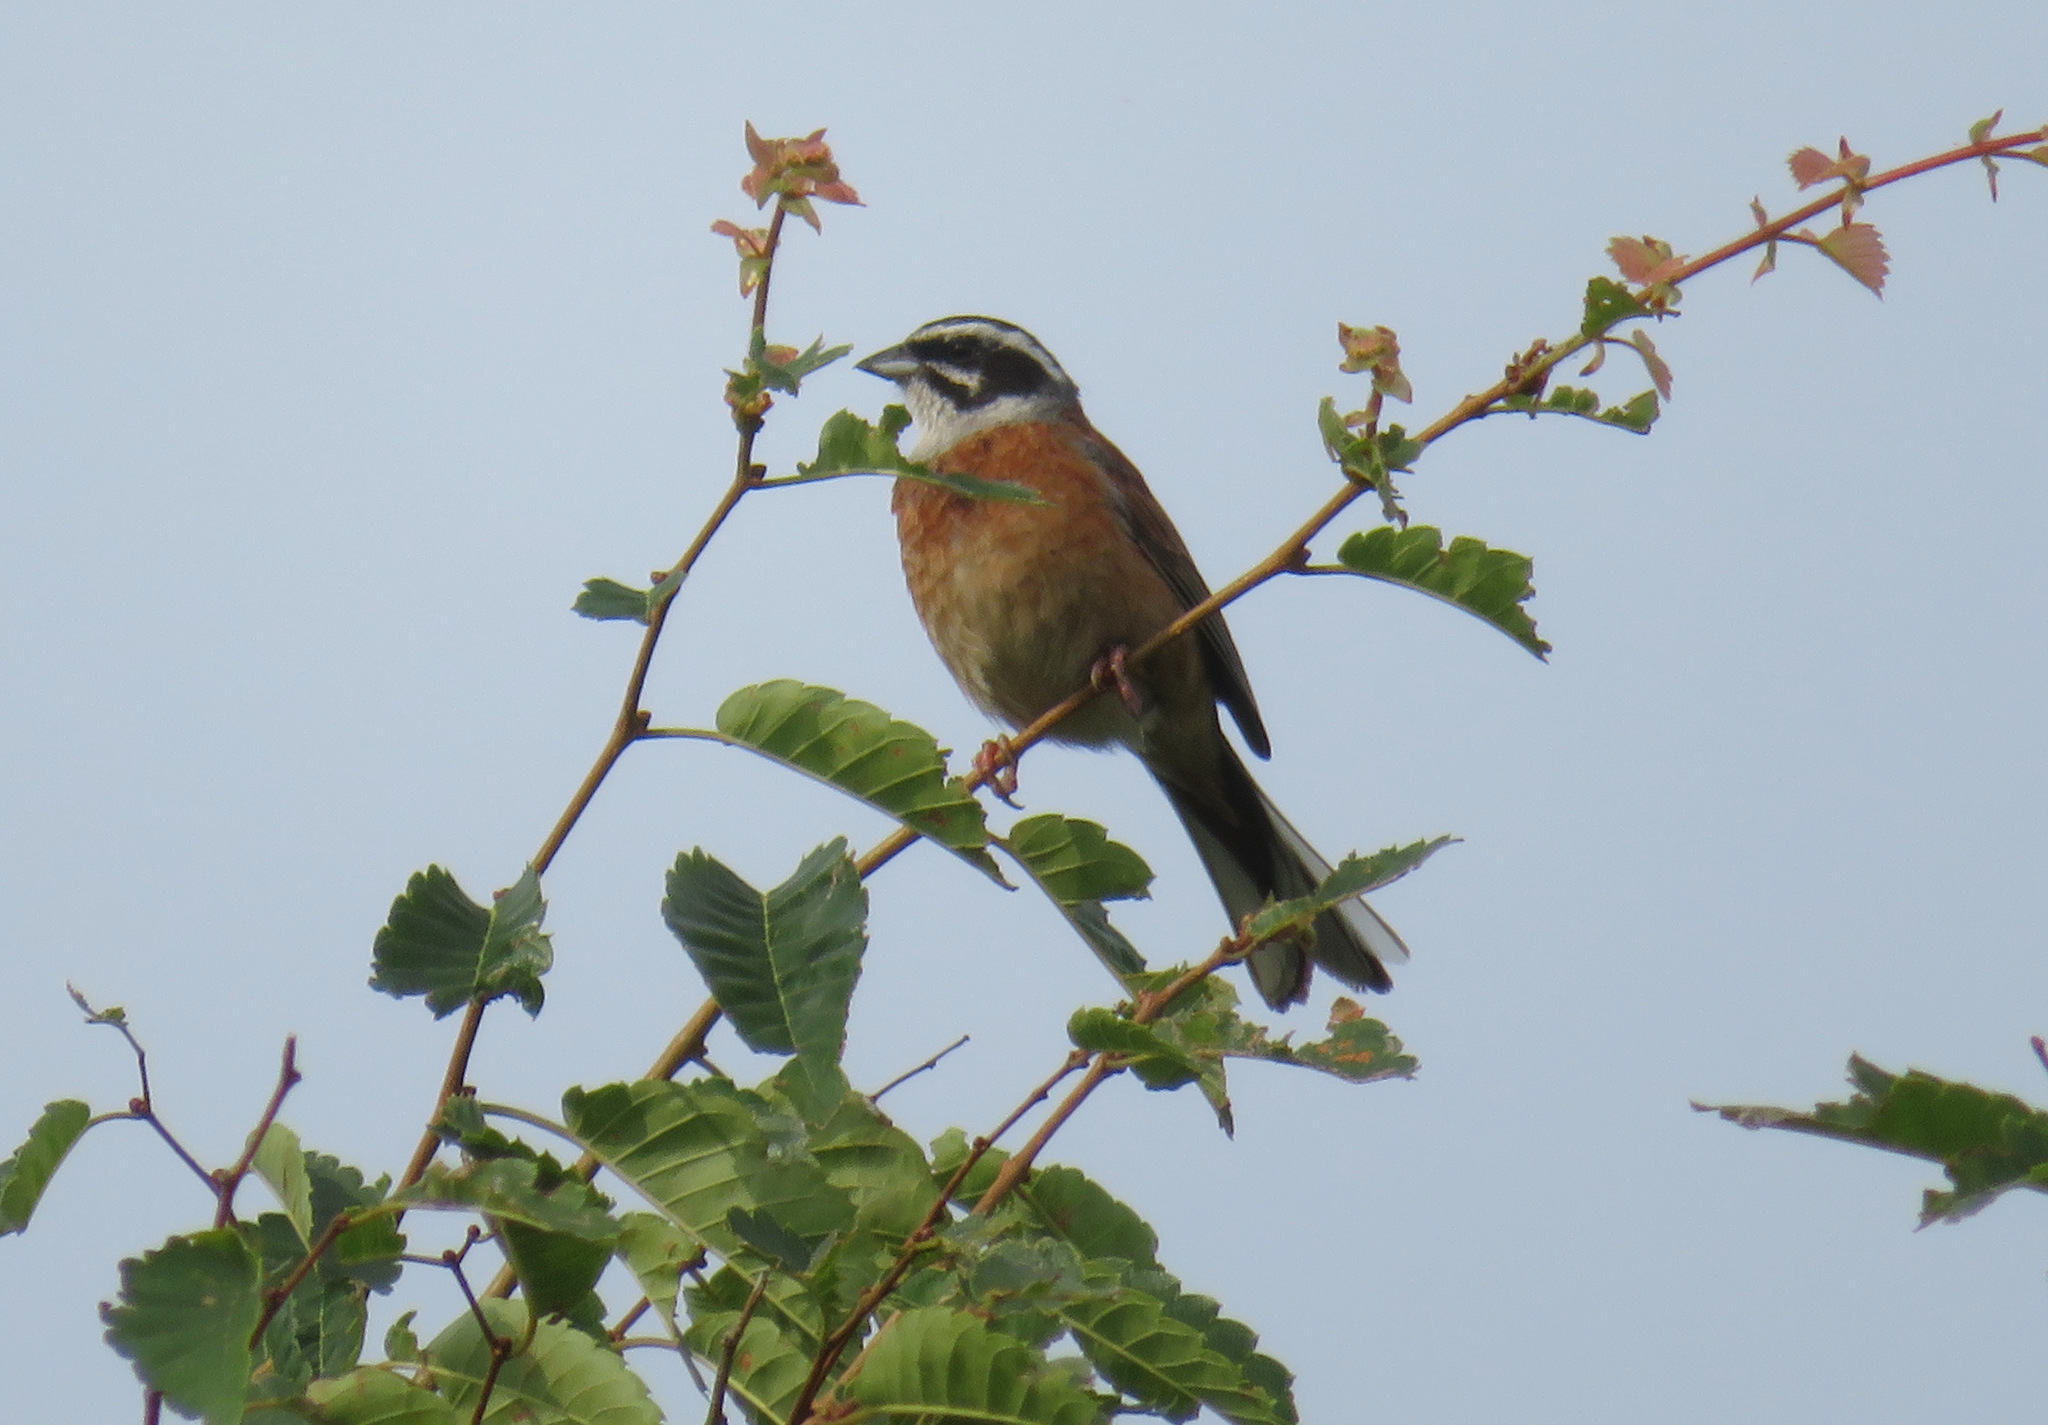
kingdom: Animalia
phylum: Chordata
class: Aves
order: Passeriformes
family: Emberizidae
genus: Emberiza
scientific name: Emberiza cioides
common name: Meadow bunting
